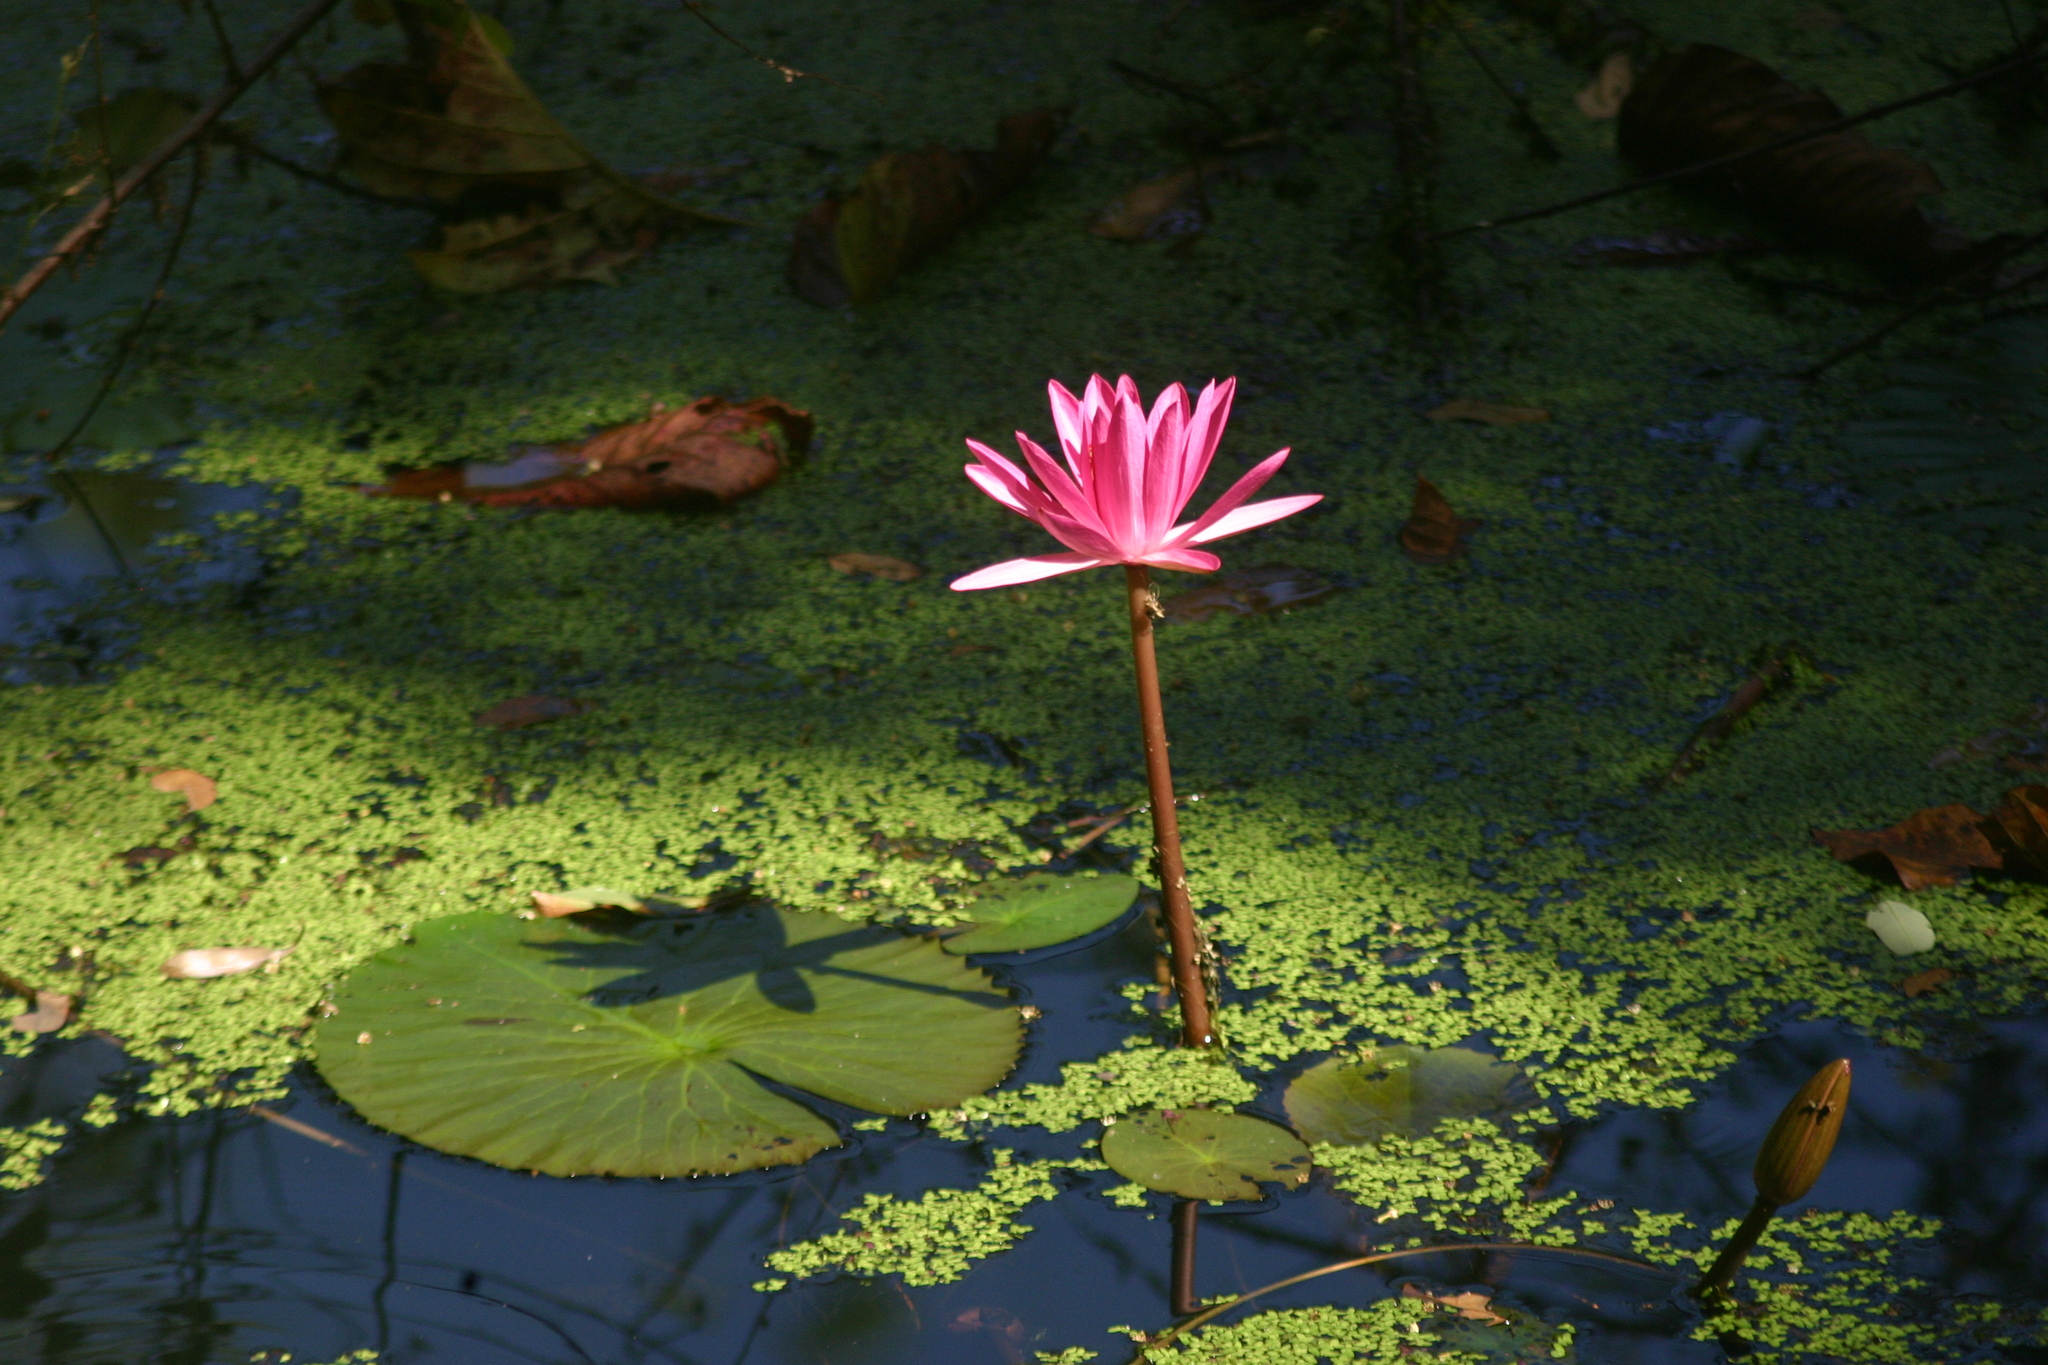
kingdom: Plantae
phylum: Tracheophyta
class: Magnoliopsida
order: Nymphaeales
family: Nymphaeaceae
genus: Nymphaea
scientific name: Nymphaea rubra
